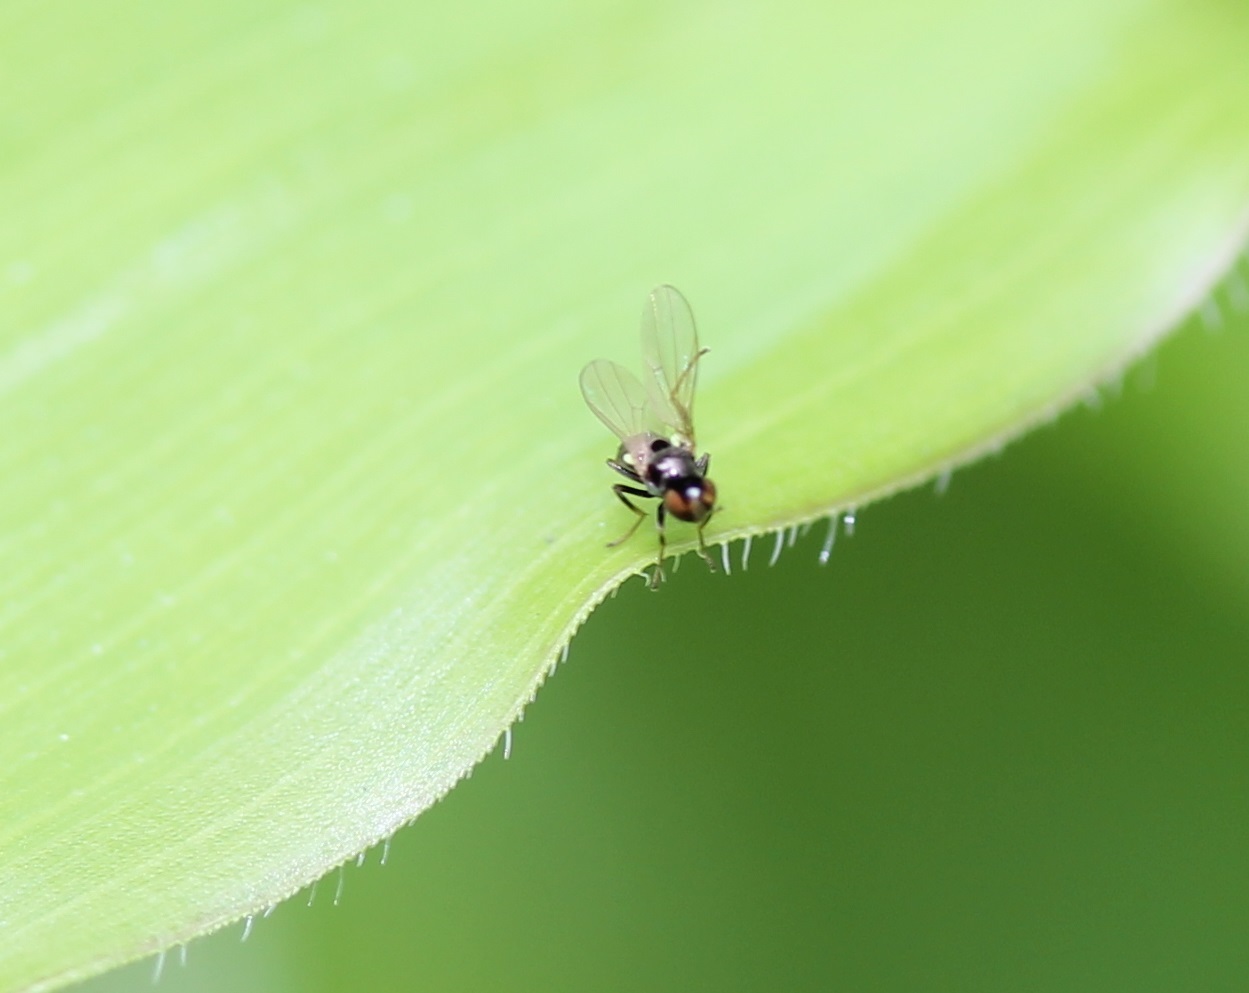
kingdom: Animalia
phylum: Arthropoda
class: Insecta
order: Diptera
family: Ephydridae
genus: Hydrellia
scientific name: Hydrellia formosa
